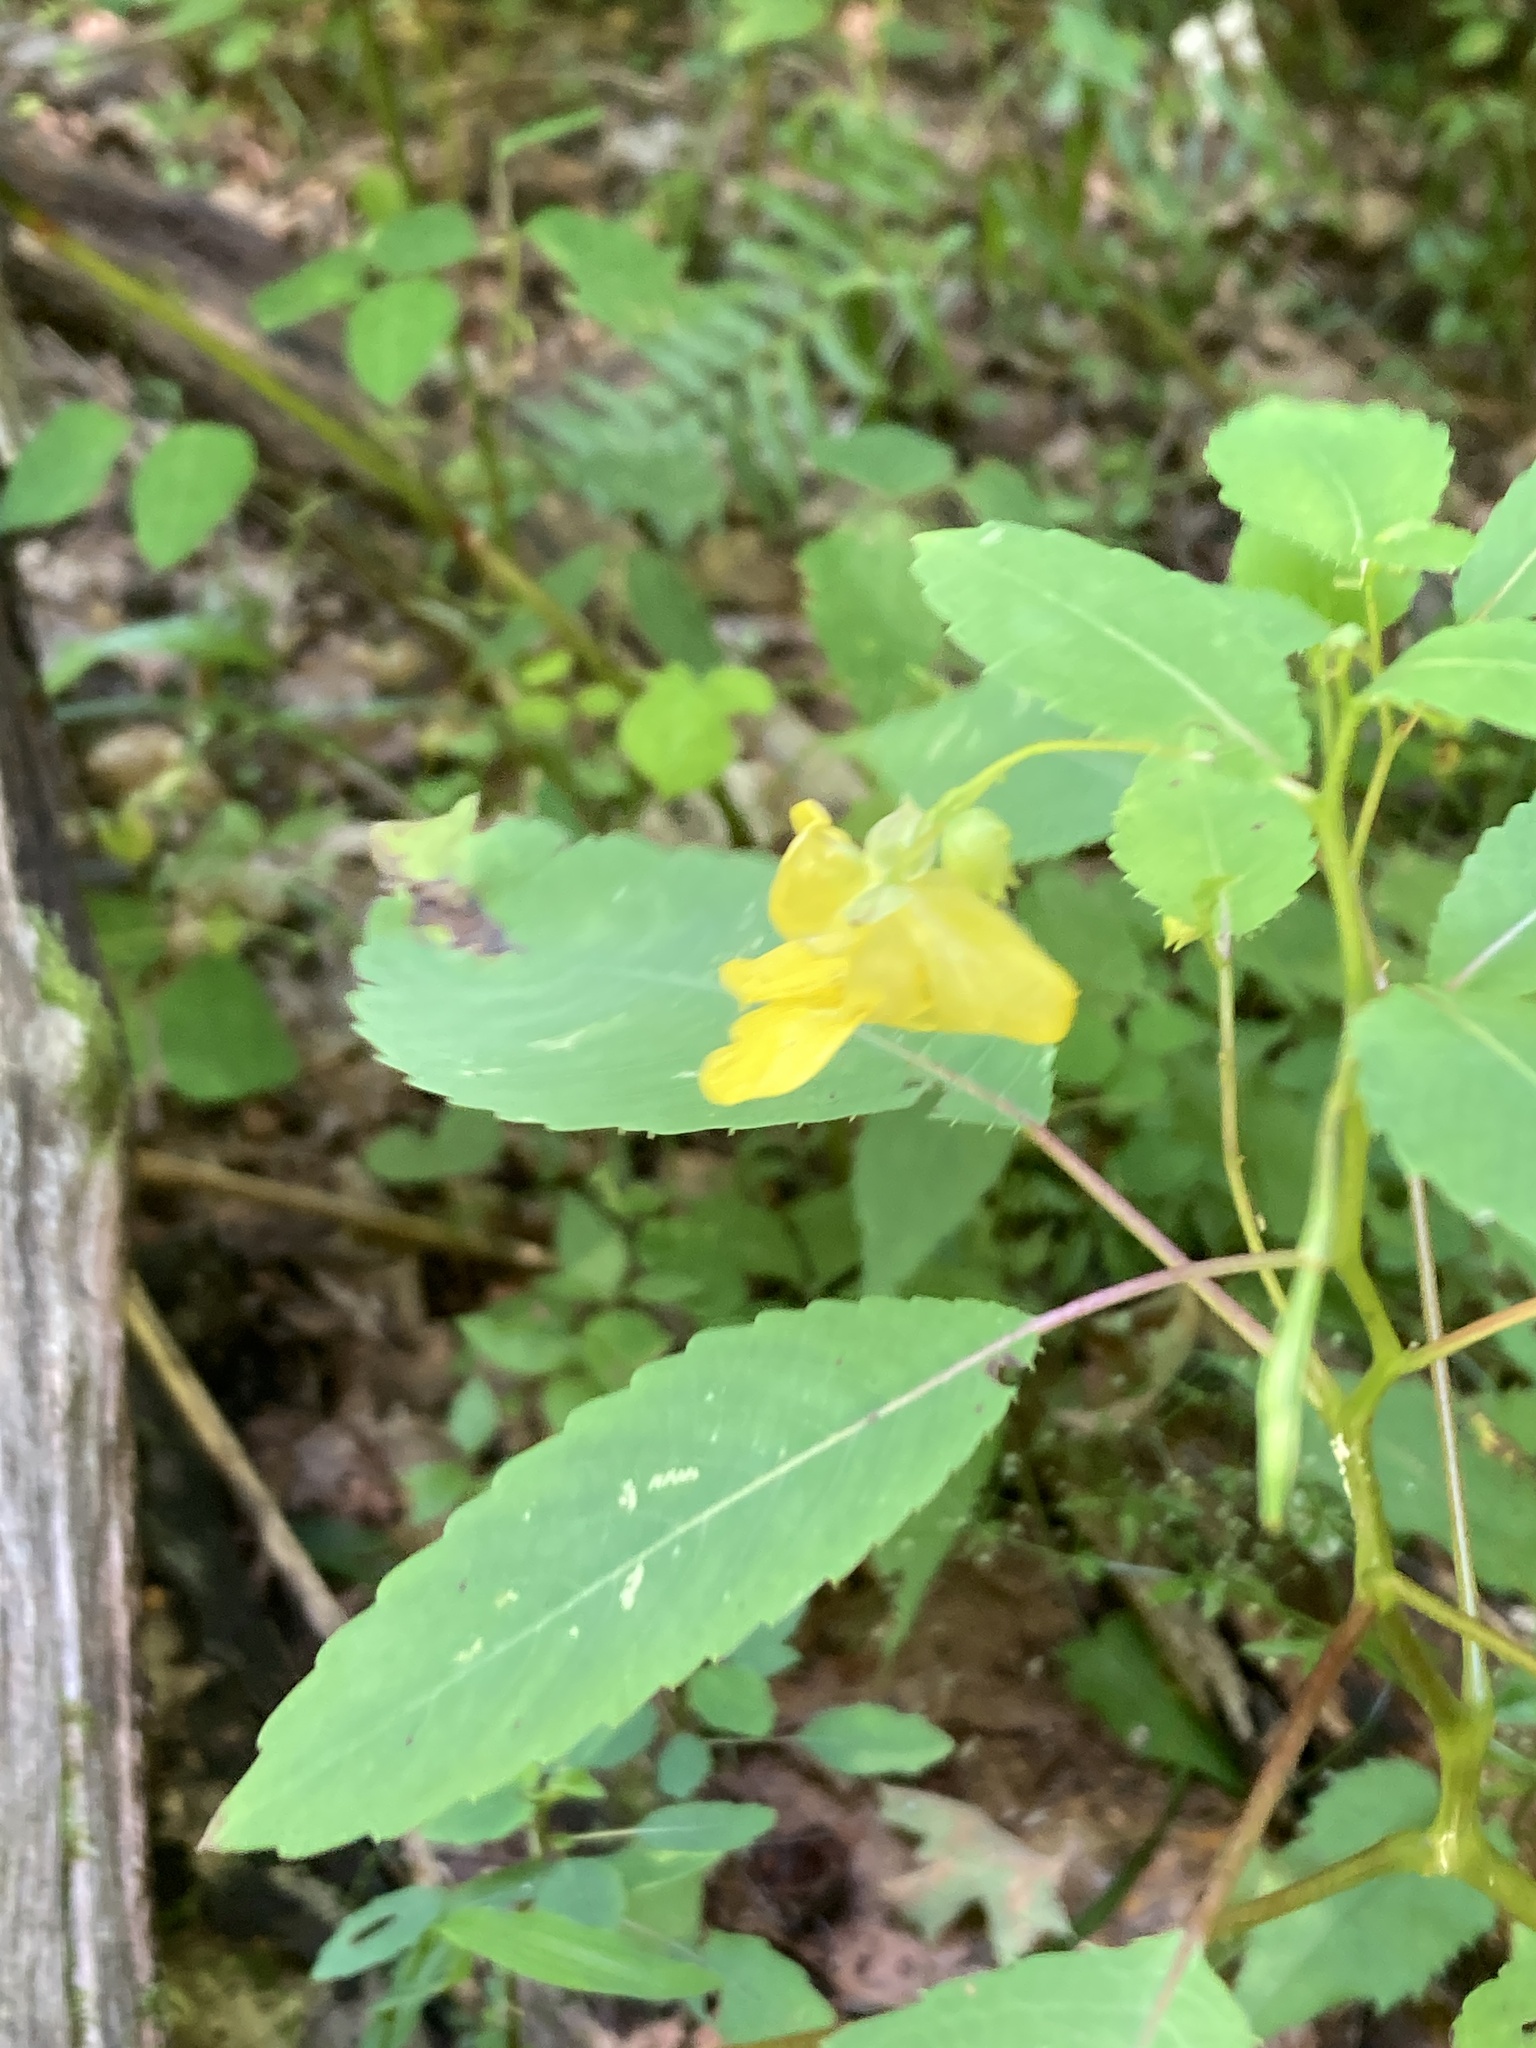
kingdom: Plantae
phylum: Tracheophyta
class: Magnoliopsida
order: Ericales
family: Balsaminaceae
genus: Impatiens
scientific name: Impatiens pallida
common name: Pale snapweed
